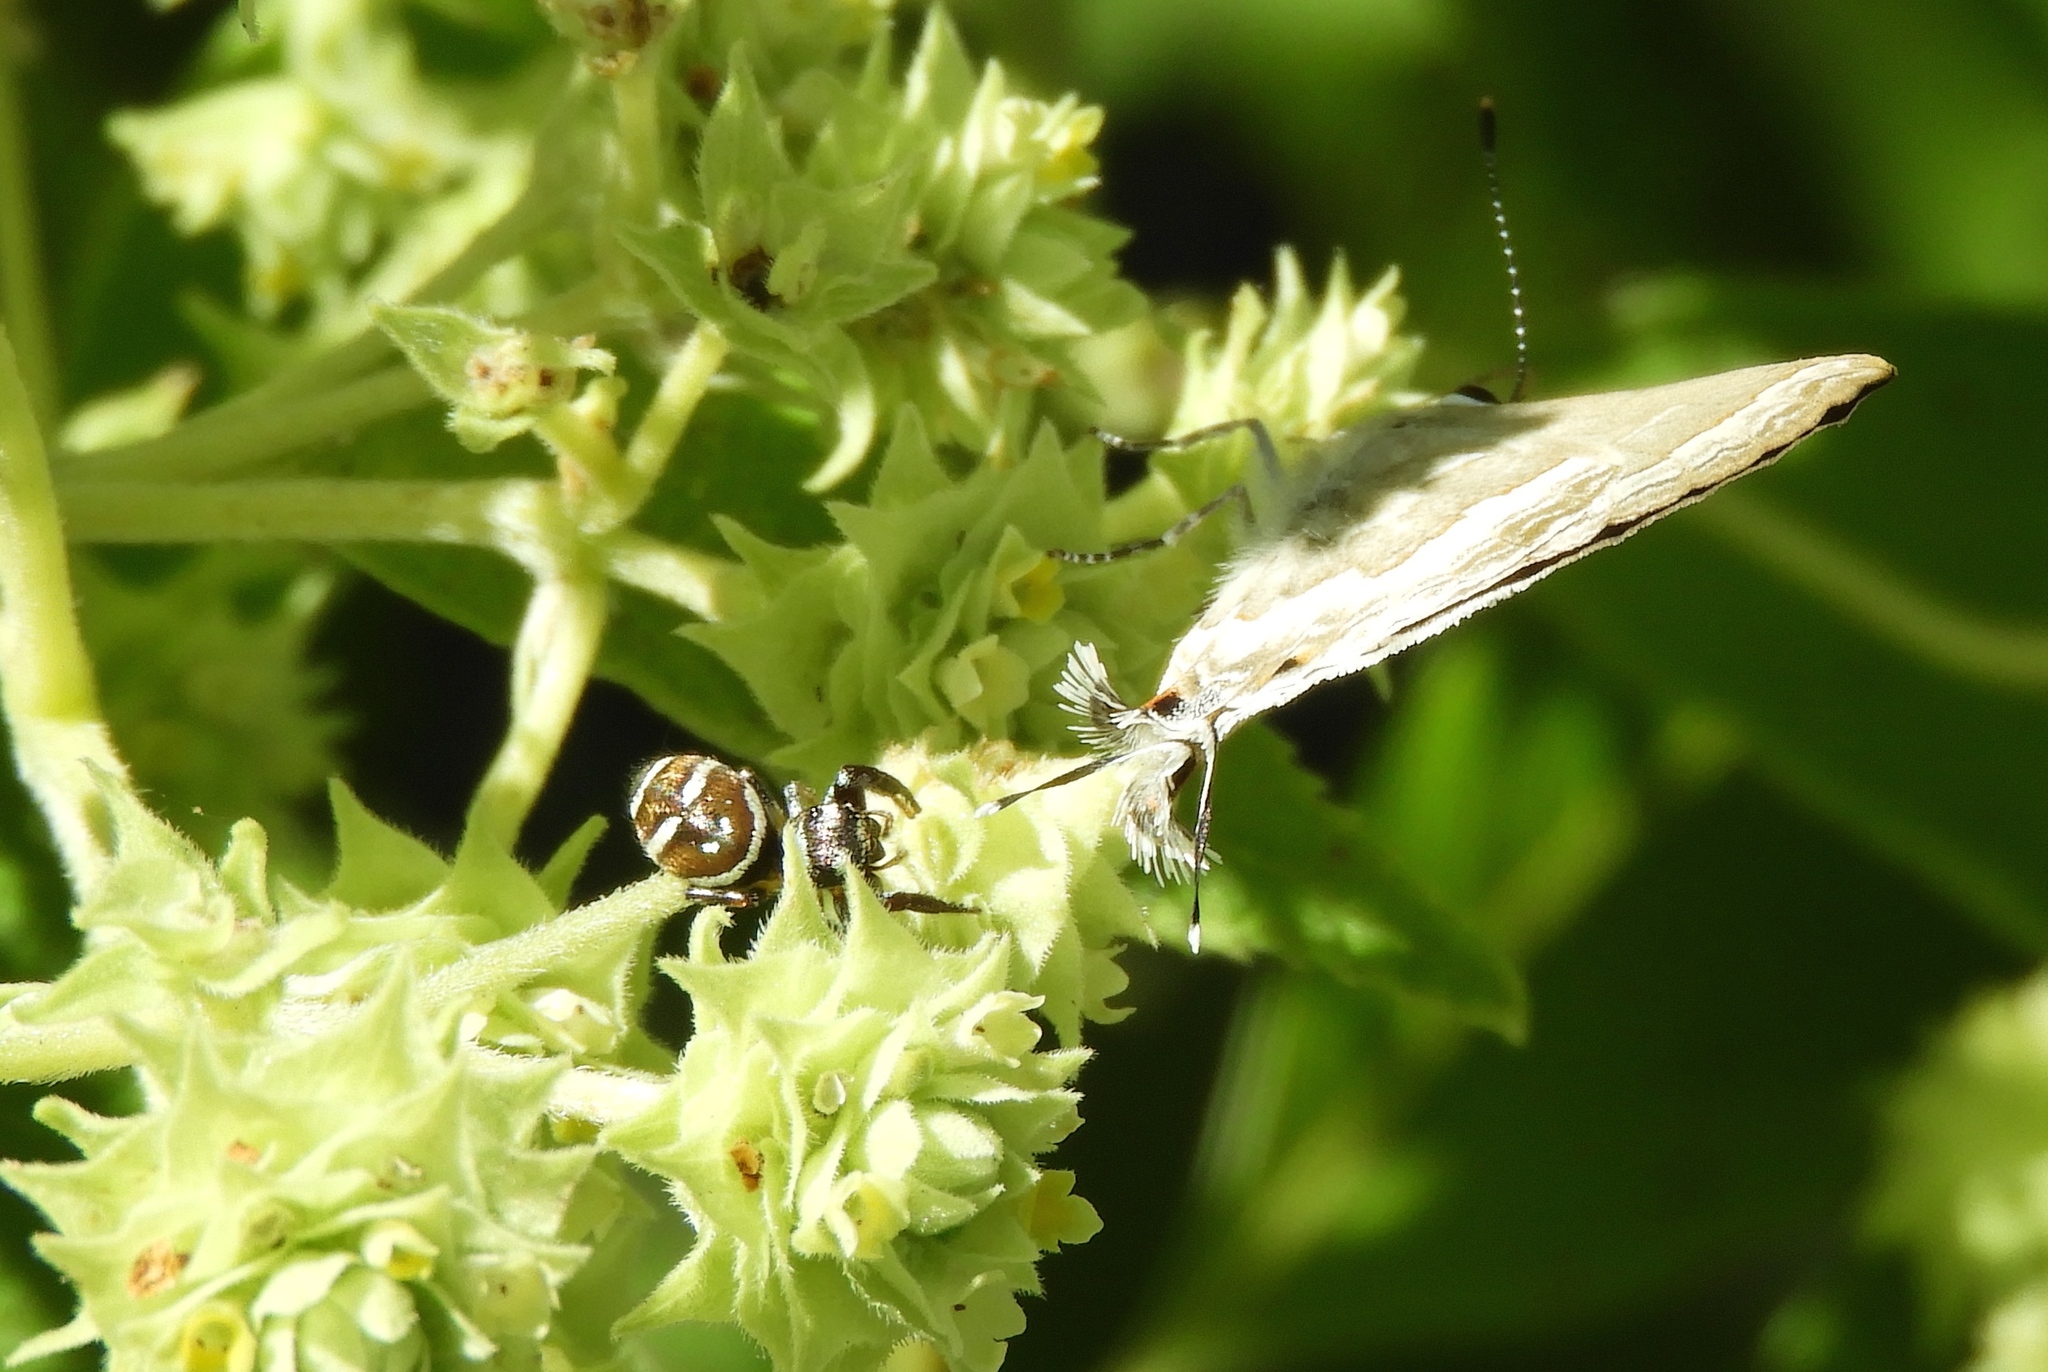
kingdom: Animalia
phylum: Arthropoda
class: Insecta
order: Lepidoptera
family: Lycaenidae
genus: Strymon
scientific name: Strymon albata
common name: White scrub-hairstreak
